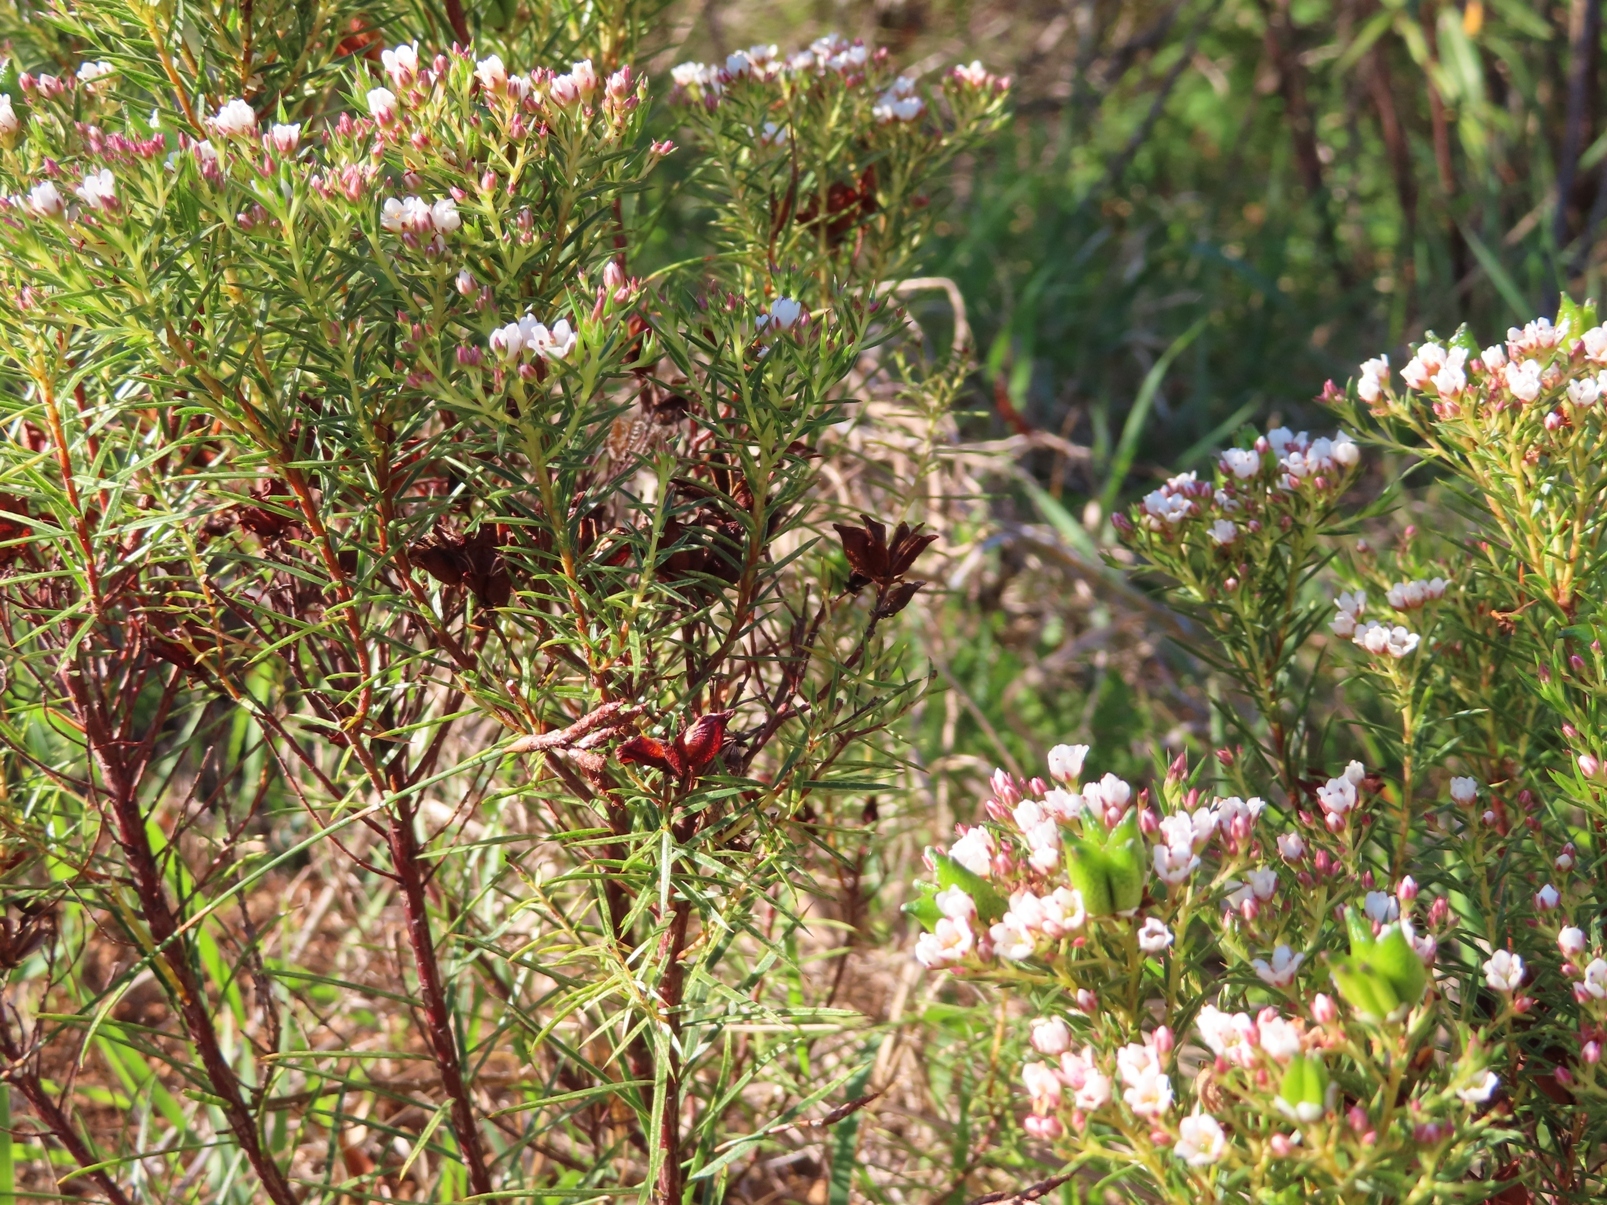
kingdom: Plantae
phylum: Tracheophyta
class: Magnoliopsida
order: Sapindales
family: Rutaceae
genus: Diosma
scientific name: Diosma hirsuta
